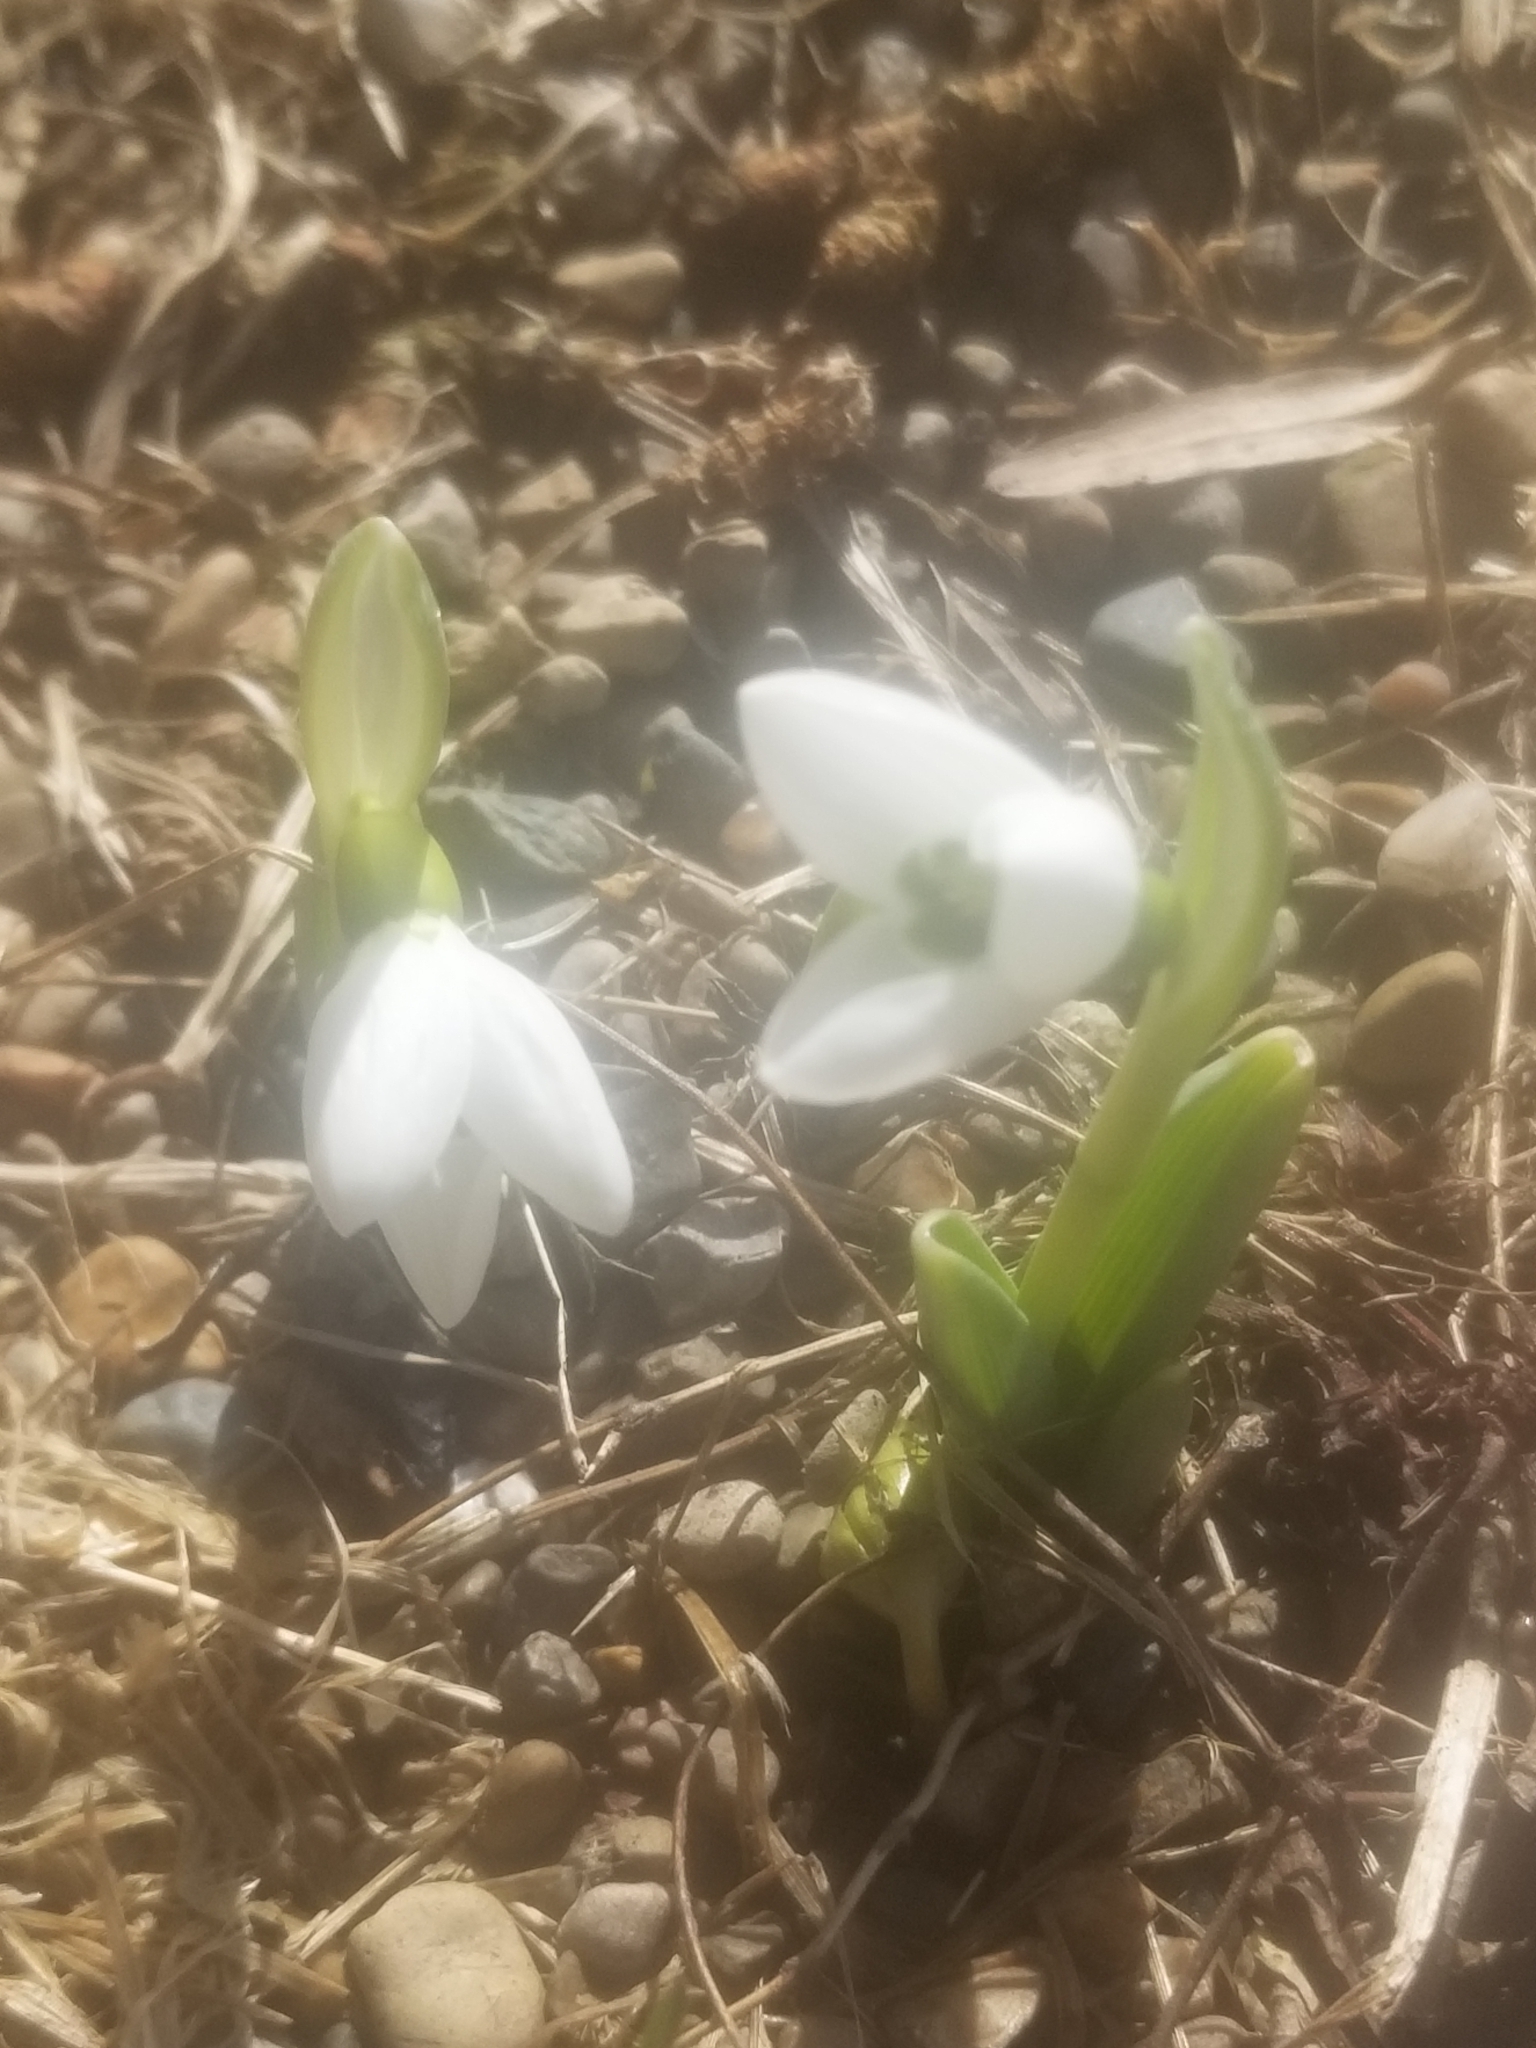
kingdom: Plantae
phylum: Tracheophyta
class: Liliopsida
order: Asparagales
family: Amaryllidaceae
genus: Galanthus
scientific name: Galanthus elwesii
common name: Greater snowdrop
